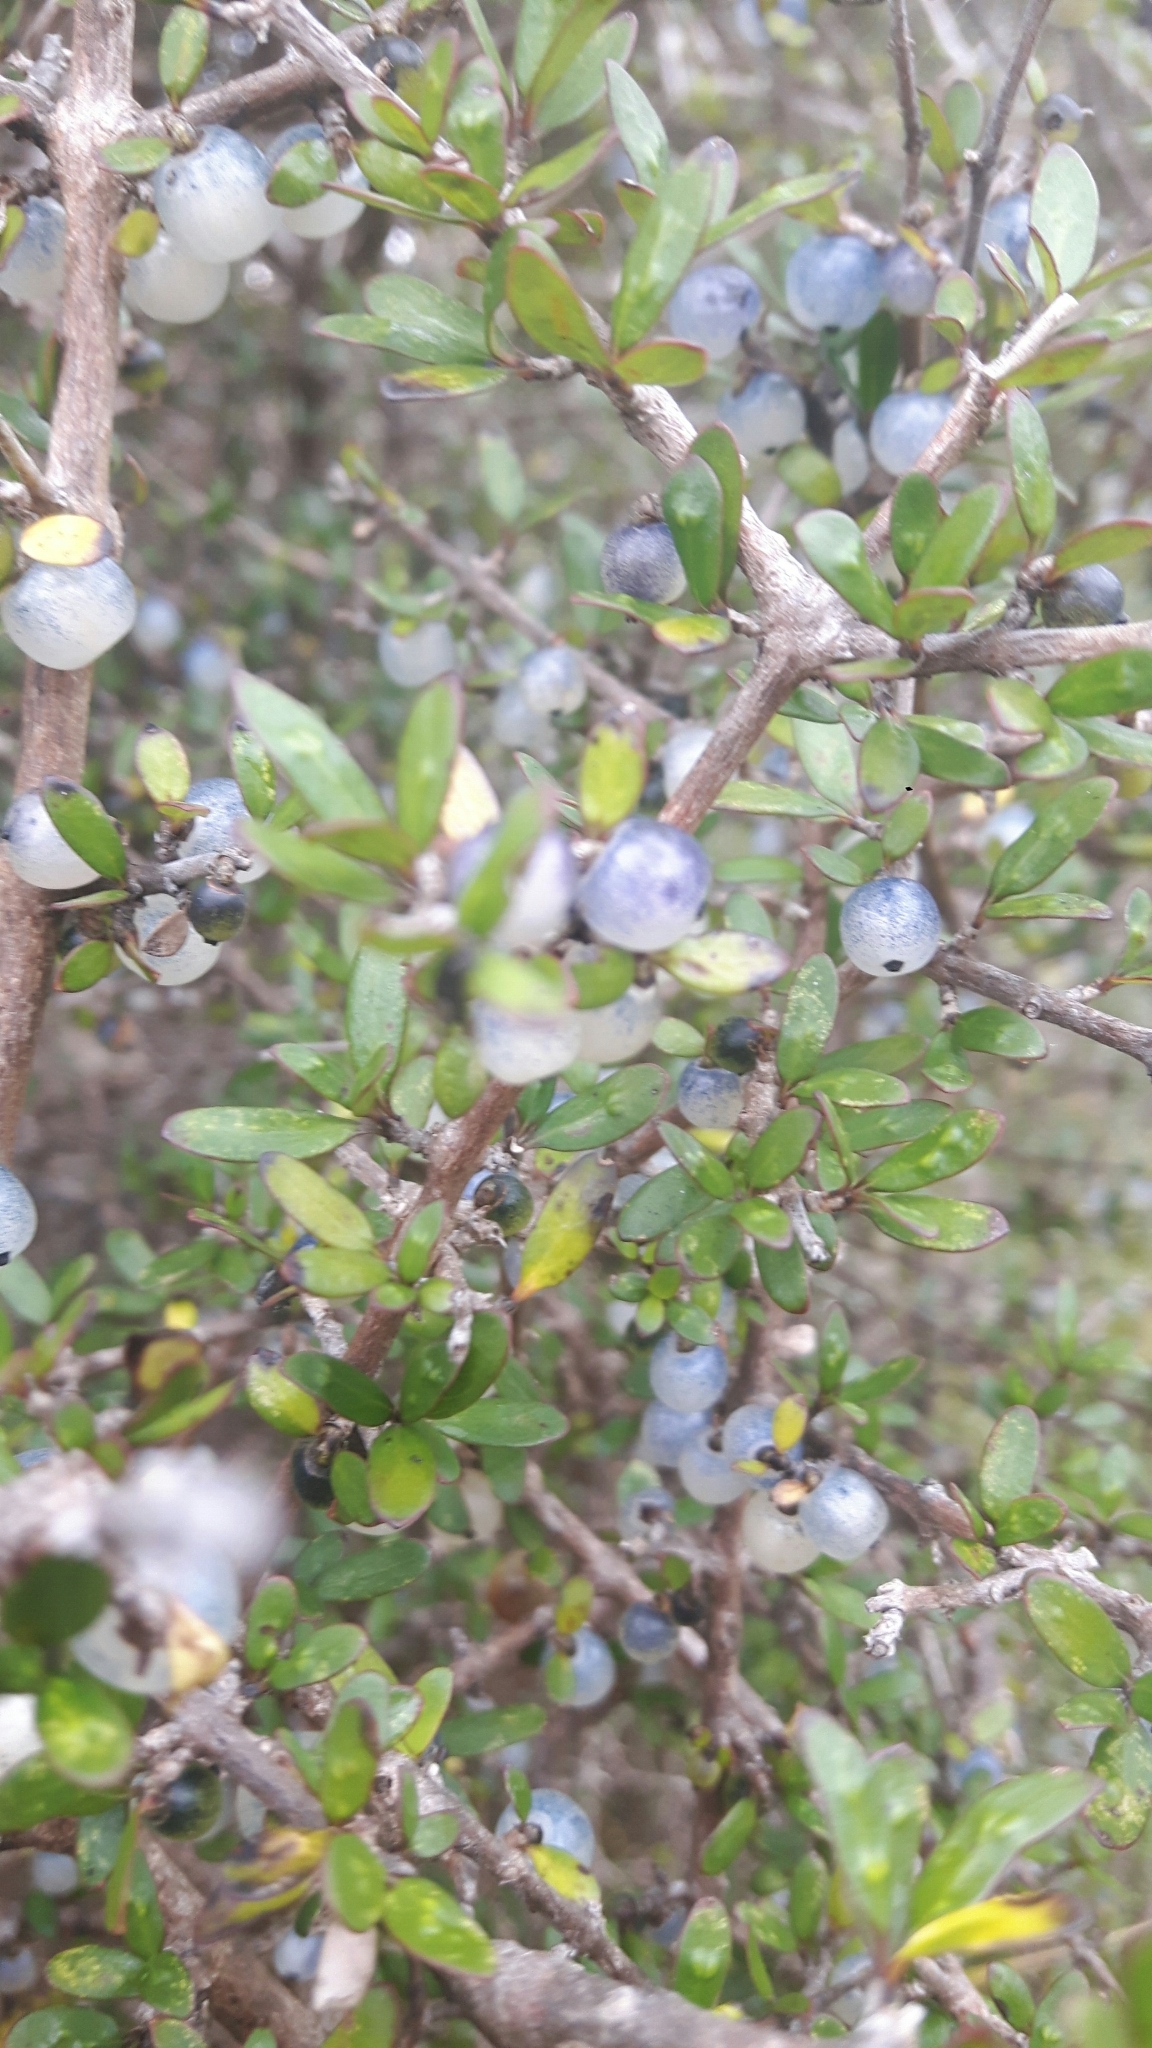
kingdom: Plantae
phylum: Tracheophyta
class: Magnoliopsida
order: Gentianales
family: Rubiaceae
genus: Coprosma
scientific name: Coprosma propinqua
